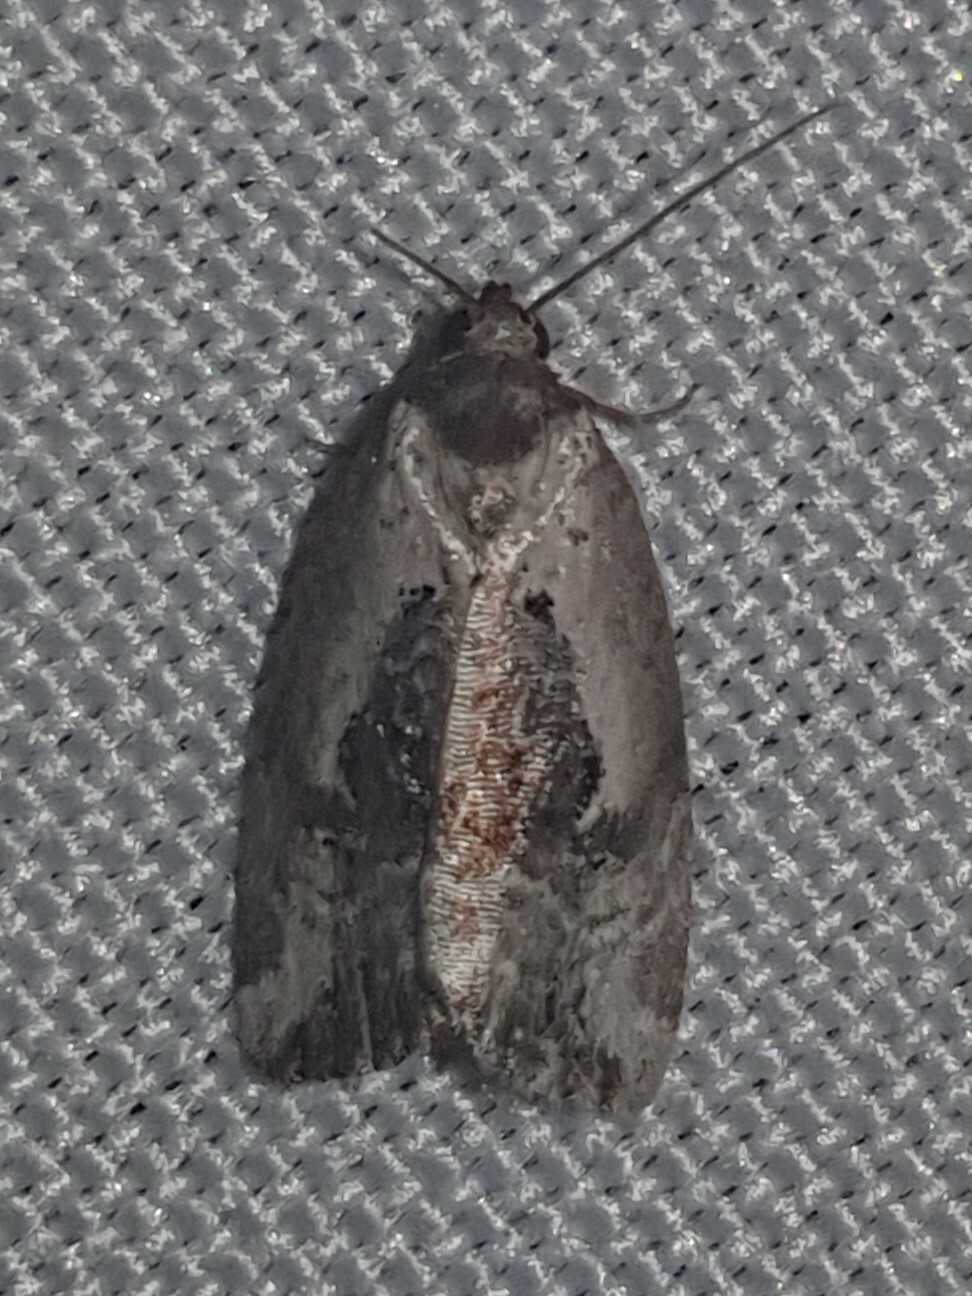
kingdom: Animalia
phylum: Arthropoda
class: Insecta
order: Lepidoptera
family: Noctuidae
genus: Elaphria
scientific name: Elaphria venustula
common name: Rosy marbled
